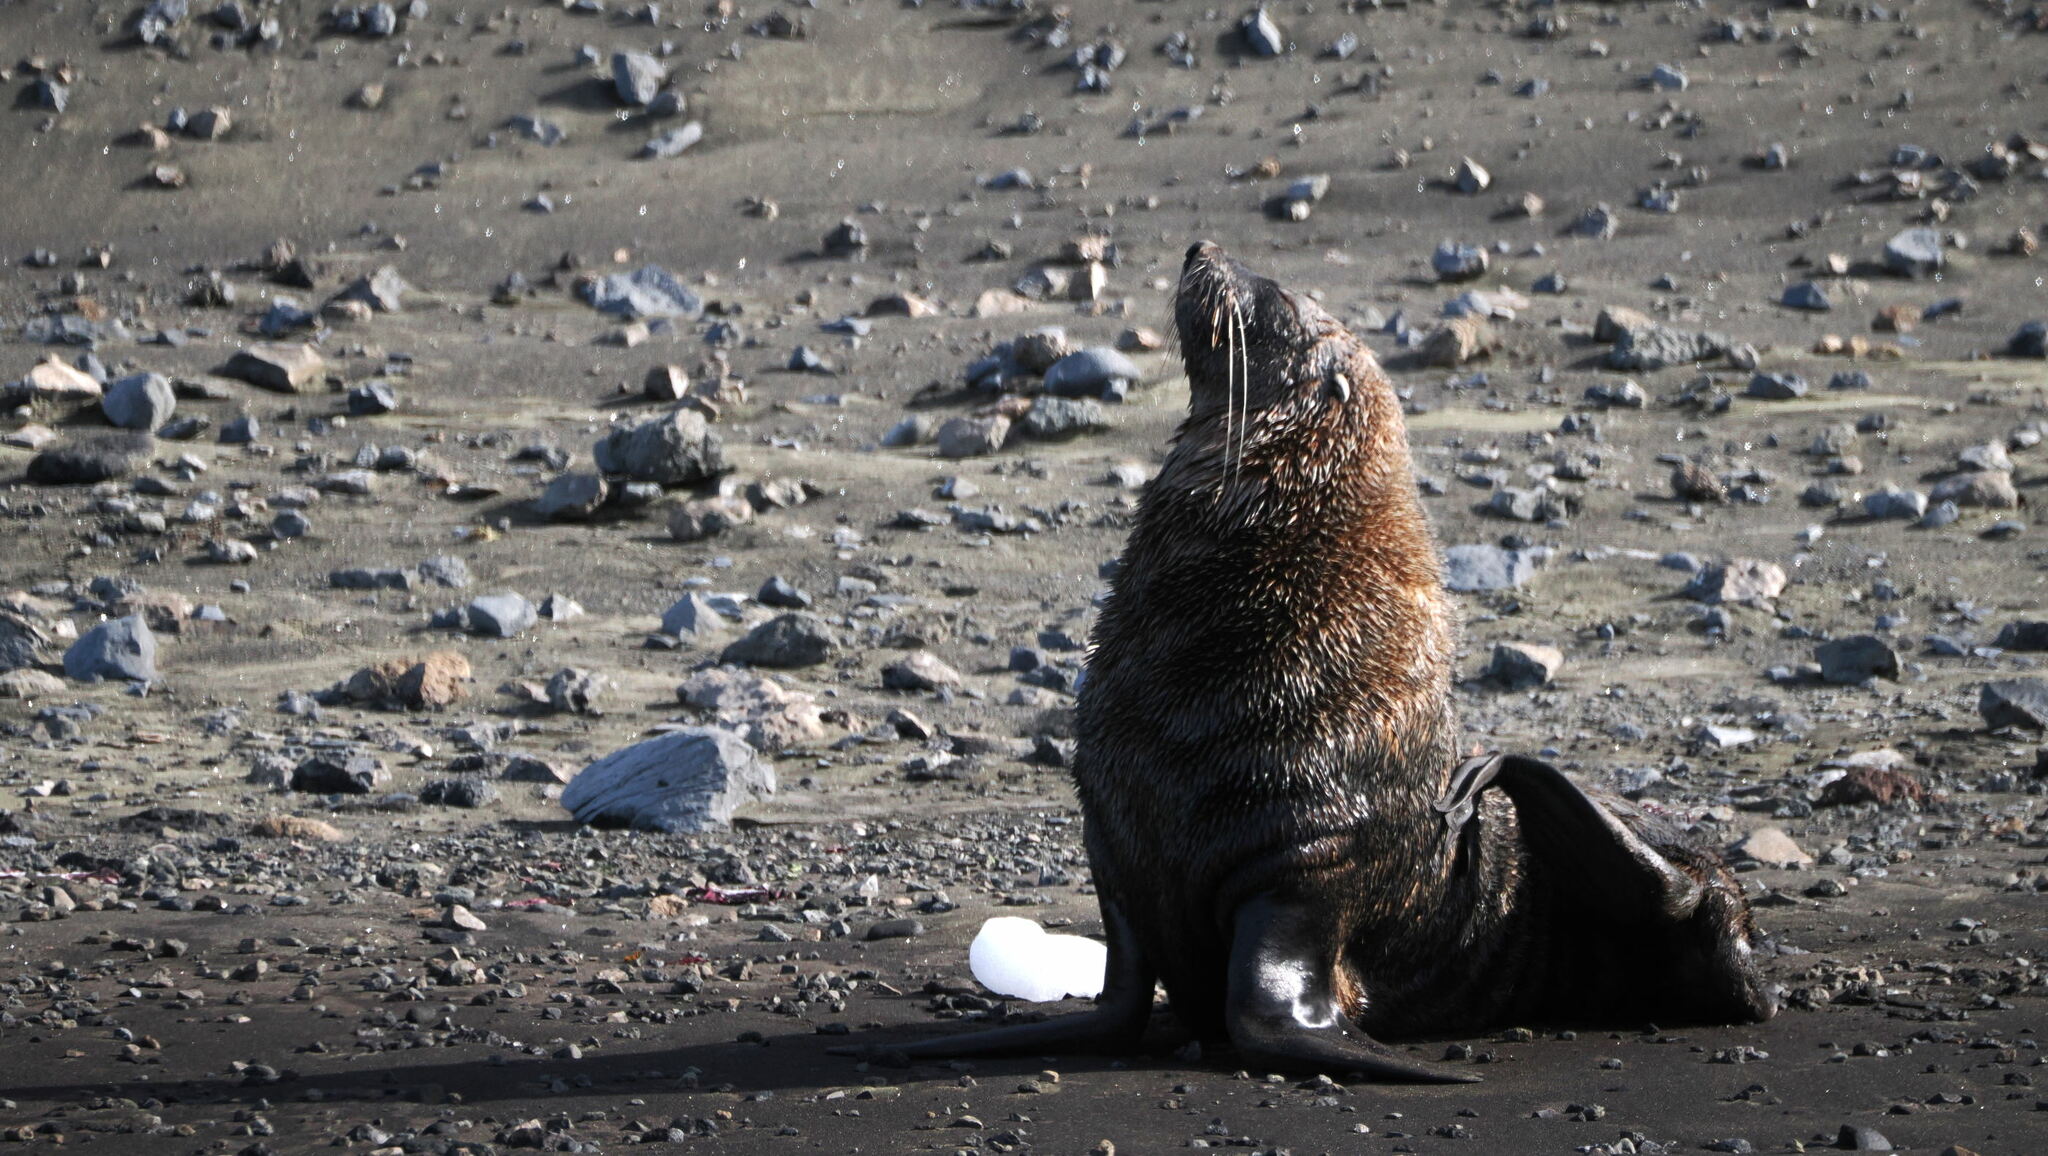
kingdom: Animalia
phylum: Chordata
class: Mammalia
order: Carnivora
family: Otariidae
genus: Arctocephalus
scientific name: Arctocephalus gazella
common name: Antarctic fur seal
